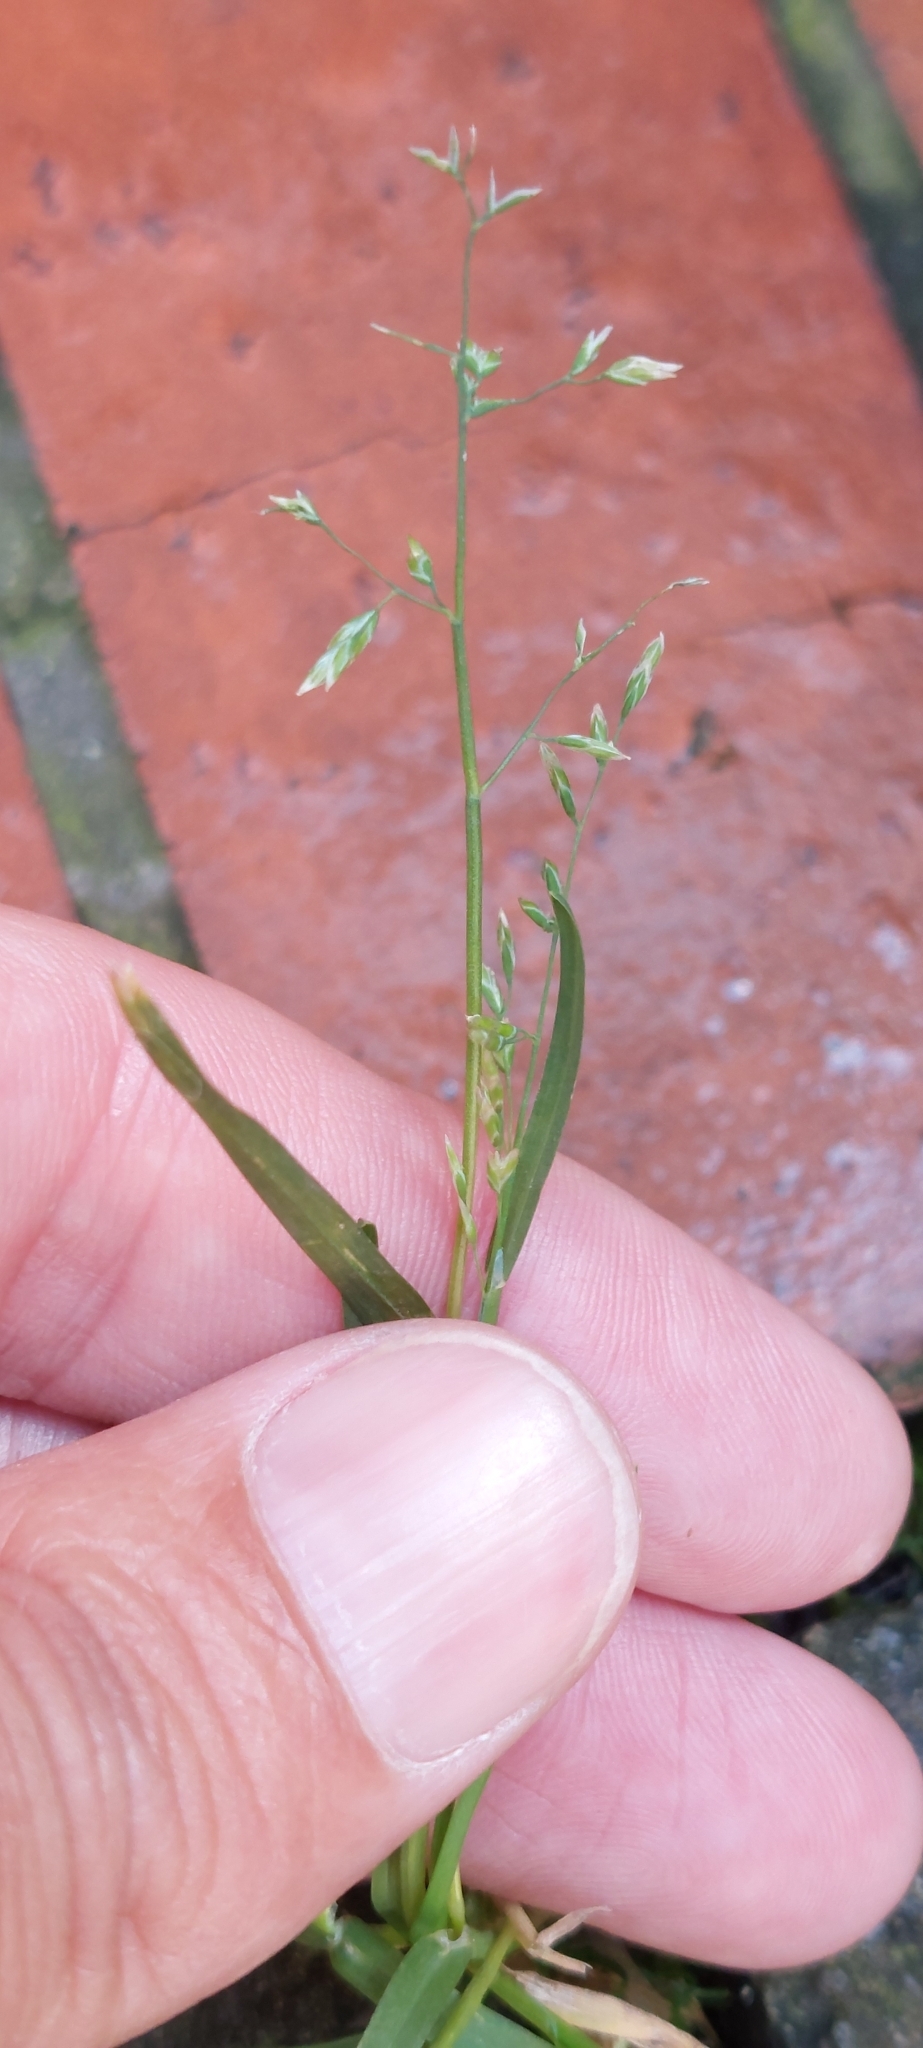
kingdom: Plantae
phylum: Tracheophyta
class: Liliopsida
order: Poales
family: Poaceae
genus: Poa
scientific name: Poa annua
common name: Annual bluegrass
